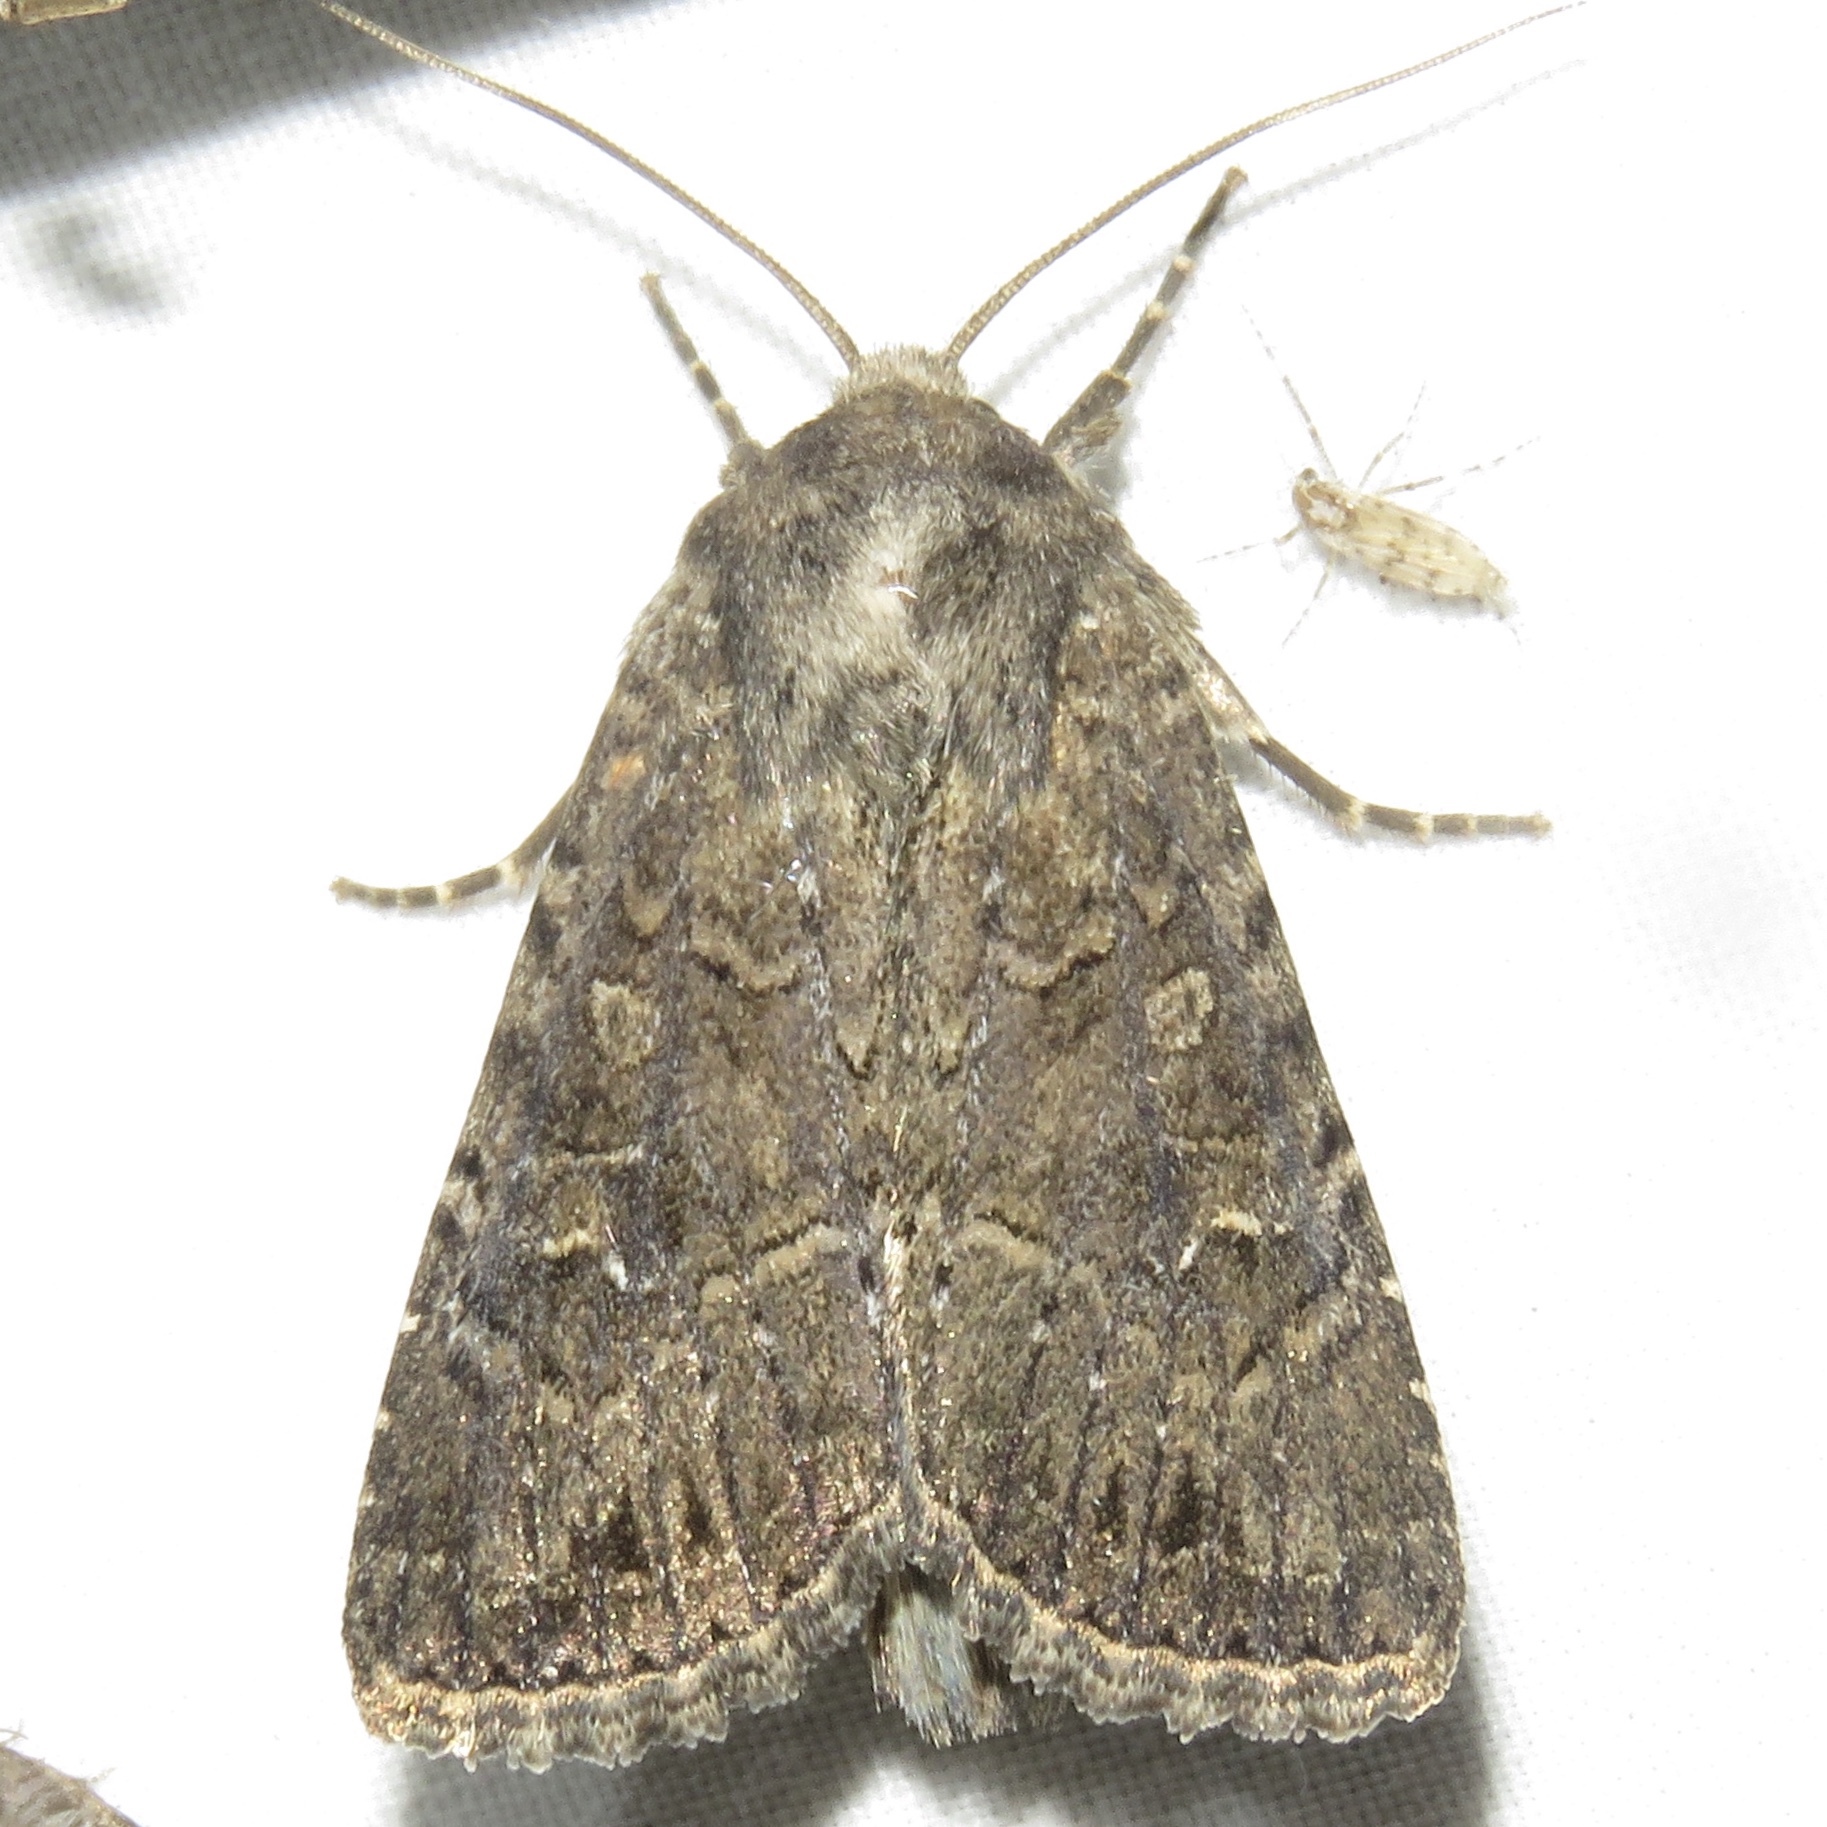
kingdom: Animalia
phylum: Arthropoda
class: Insecta
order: Lepidoptera
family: Noctuidae
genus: Apamea
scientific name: Apamea devastator
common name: Glassy cutworm
